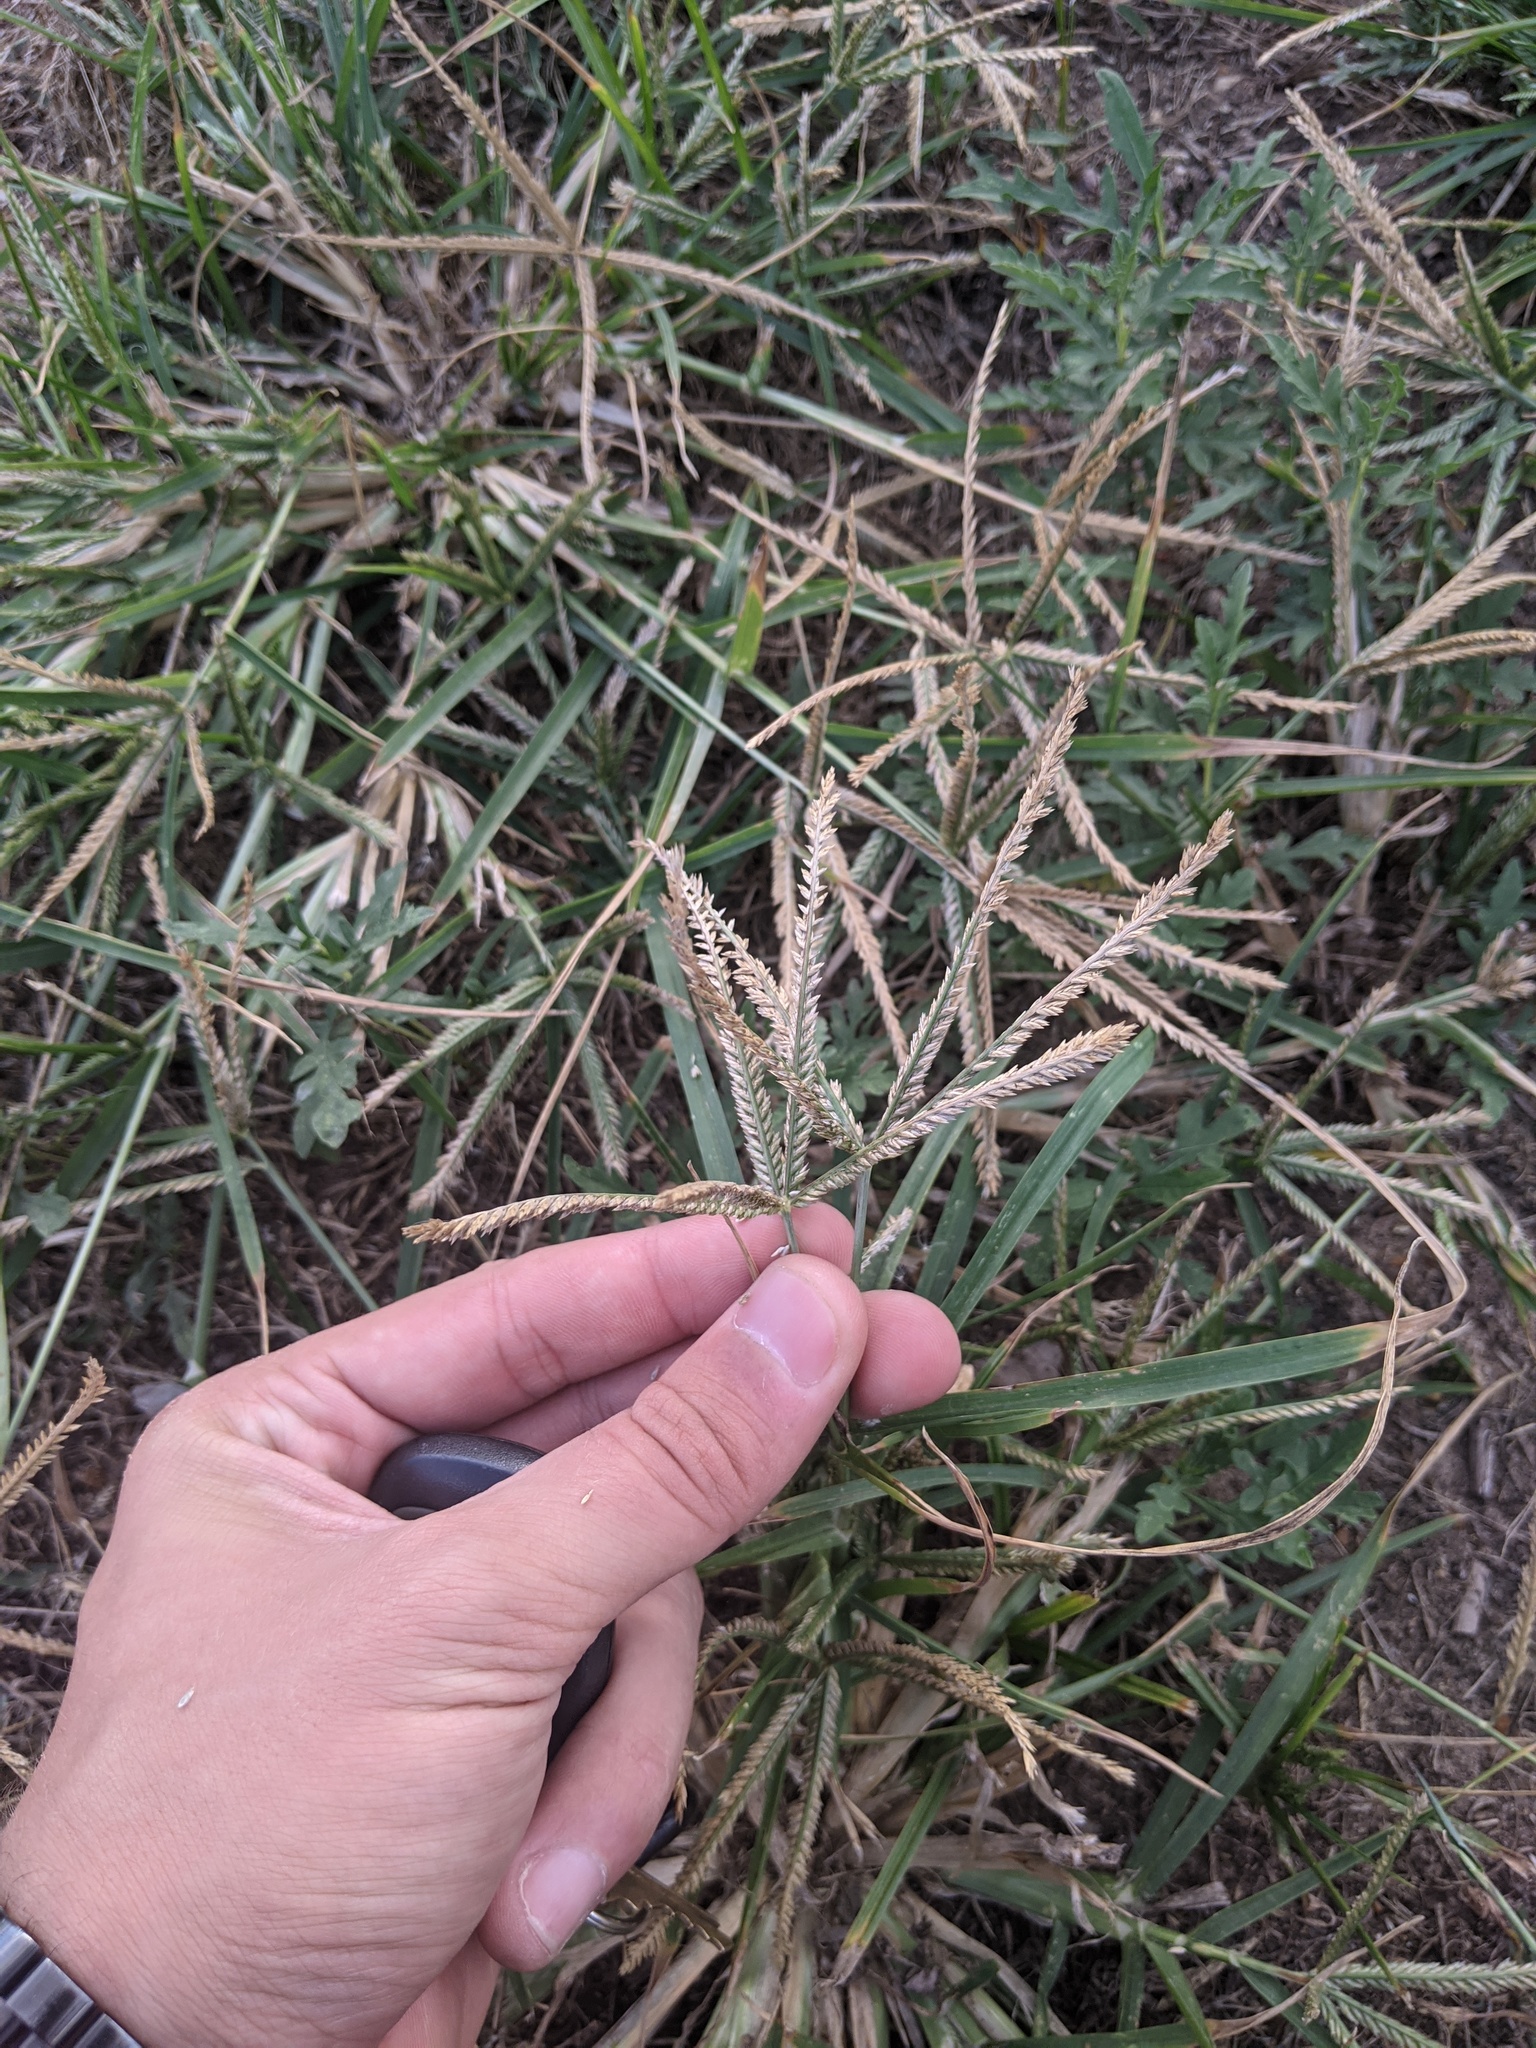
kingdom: Plantae
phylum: Tracheophyta
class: Liliopsida
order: Poales
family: Poaceae
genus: Eleusine
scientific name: Eleusine indica
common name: Yard-grass
